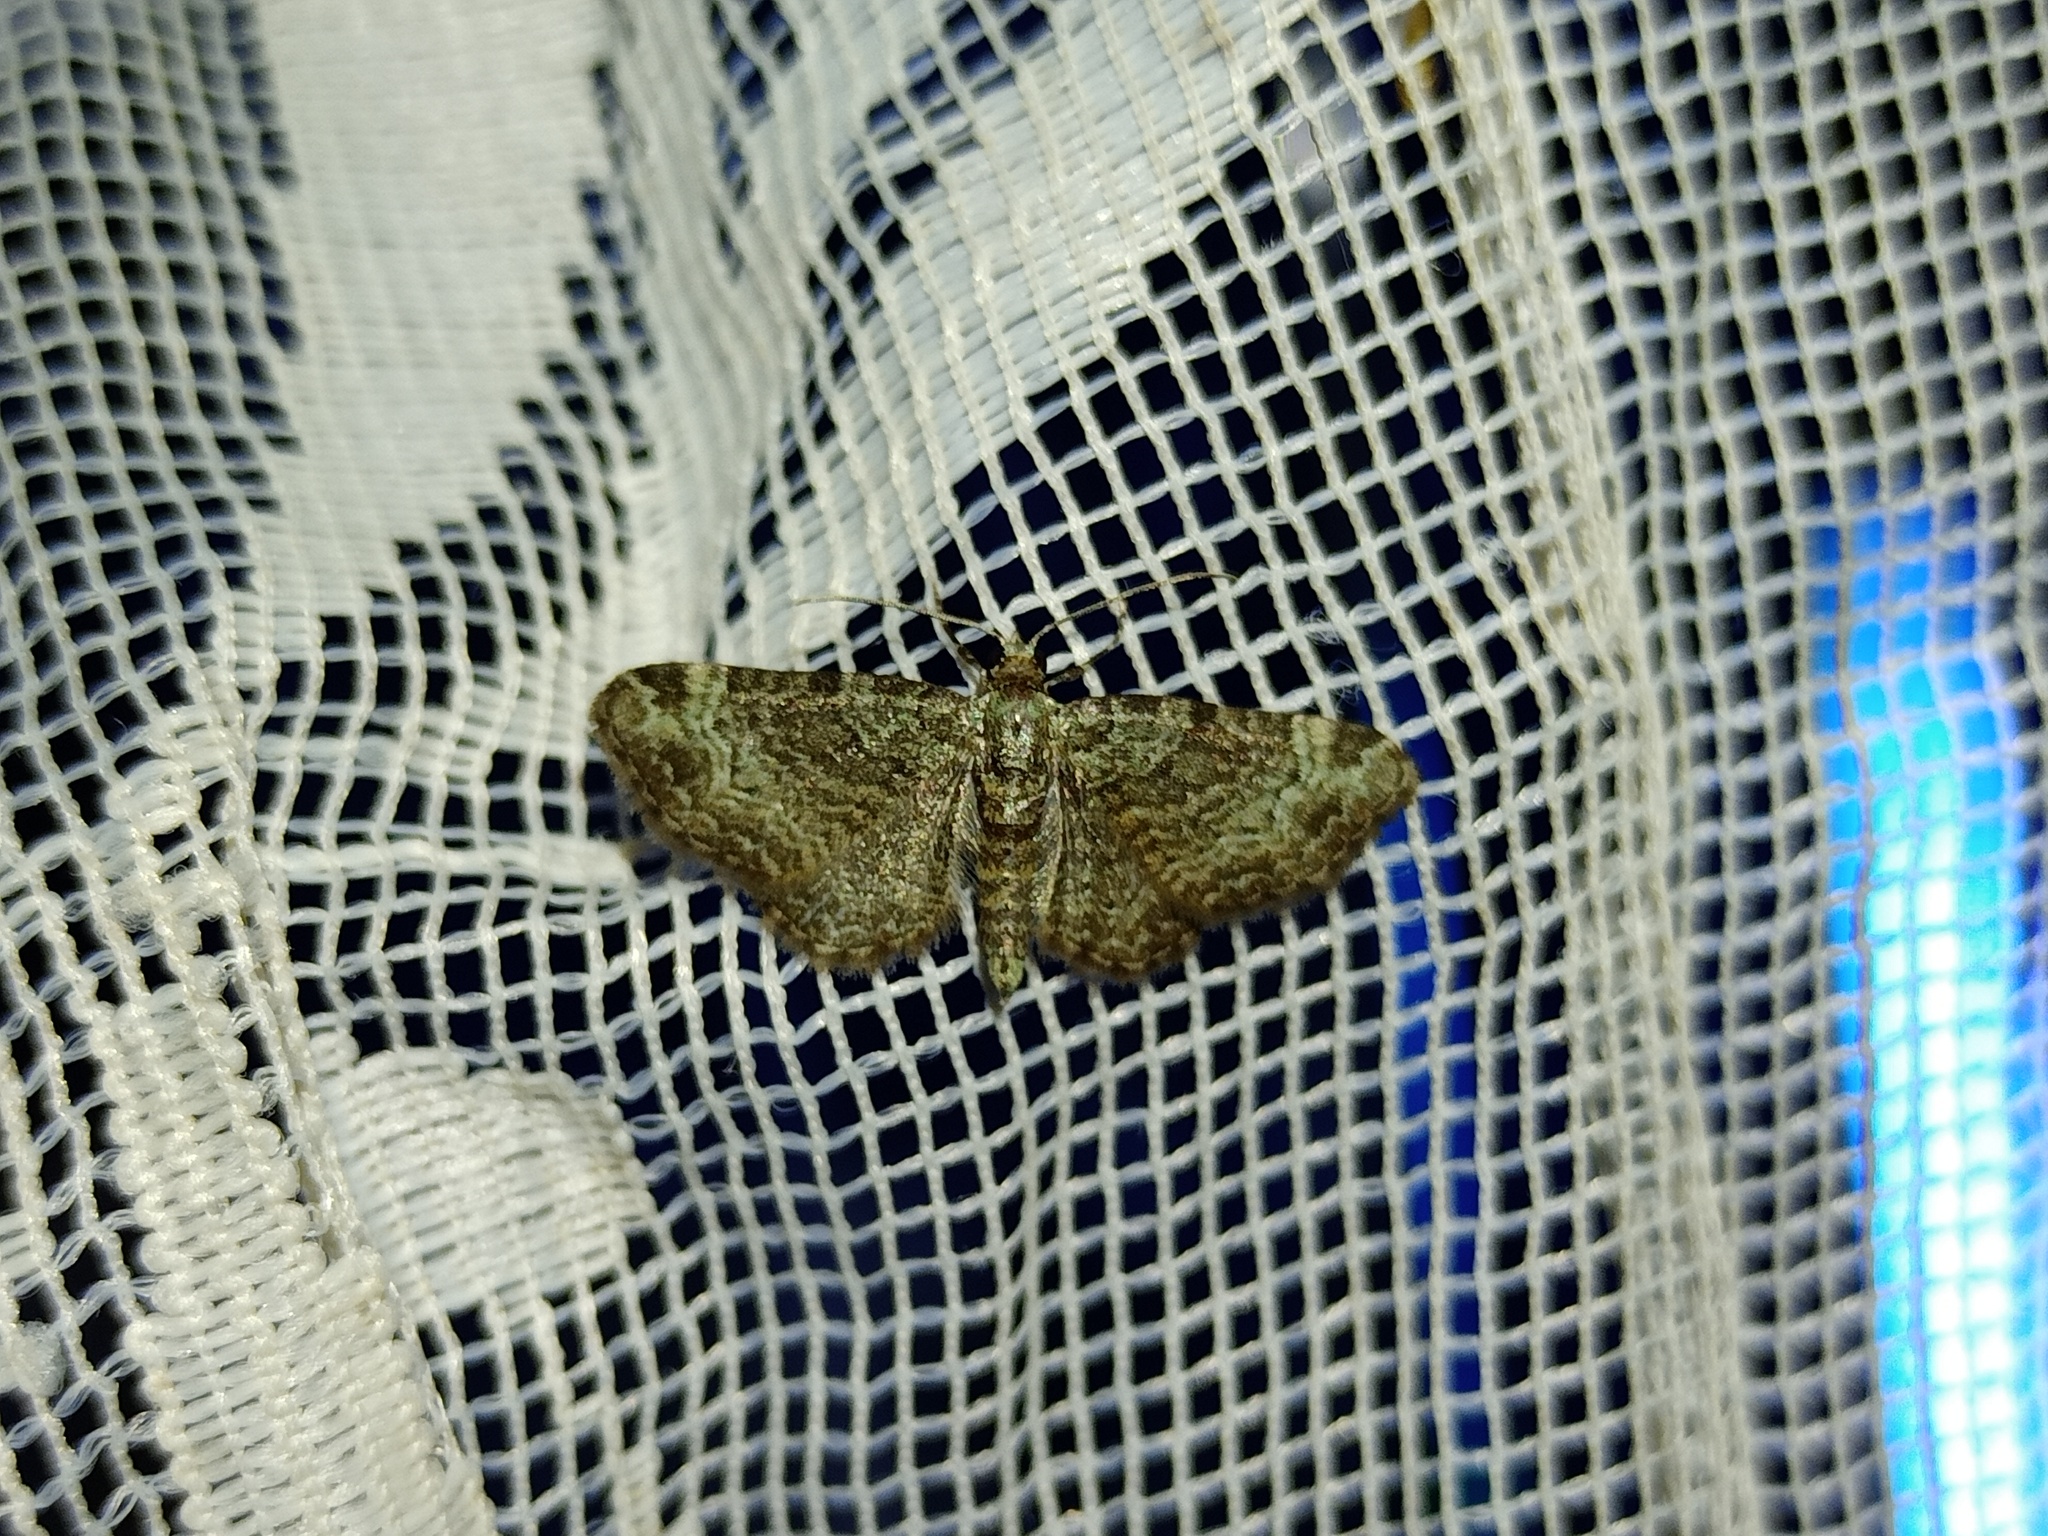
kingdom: Animalia
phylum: Arthropoda
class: Insecta
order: Lepidoptera
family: Geometridae
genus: Pasiphila
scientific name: Pasiphila rectangulata
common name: Green pug
